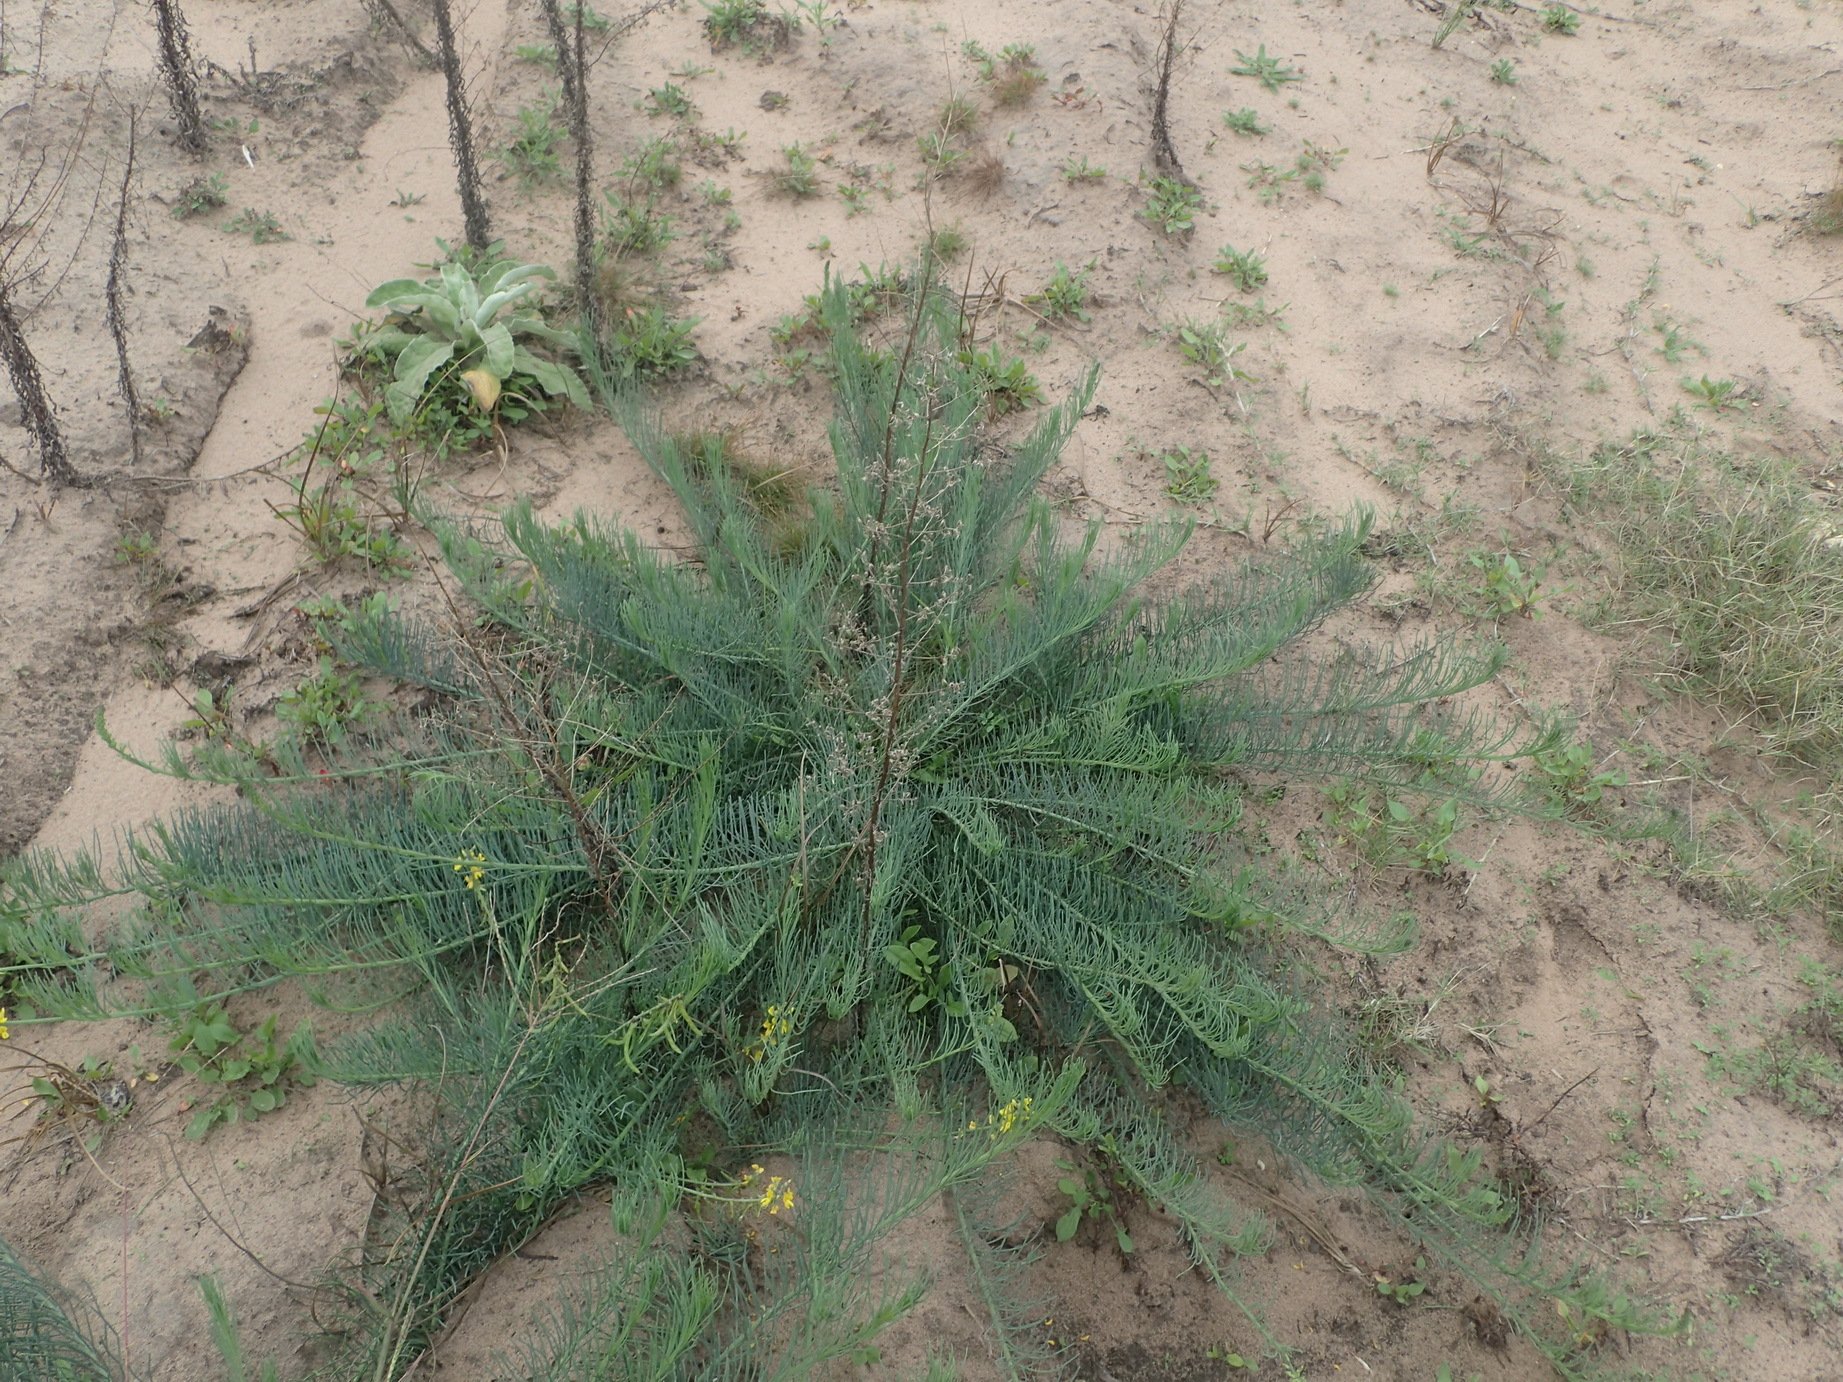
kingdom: Plantae
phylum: Tracheophyta
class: Magnoliopsida
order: Fabales
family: Fabaceae
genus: Lebeckia
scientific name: Lebeckia gracilis
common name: Slender ganna
